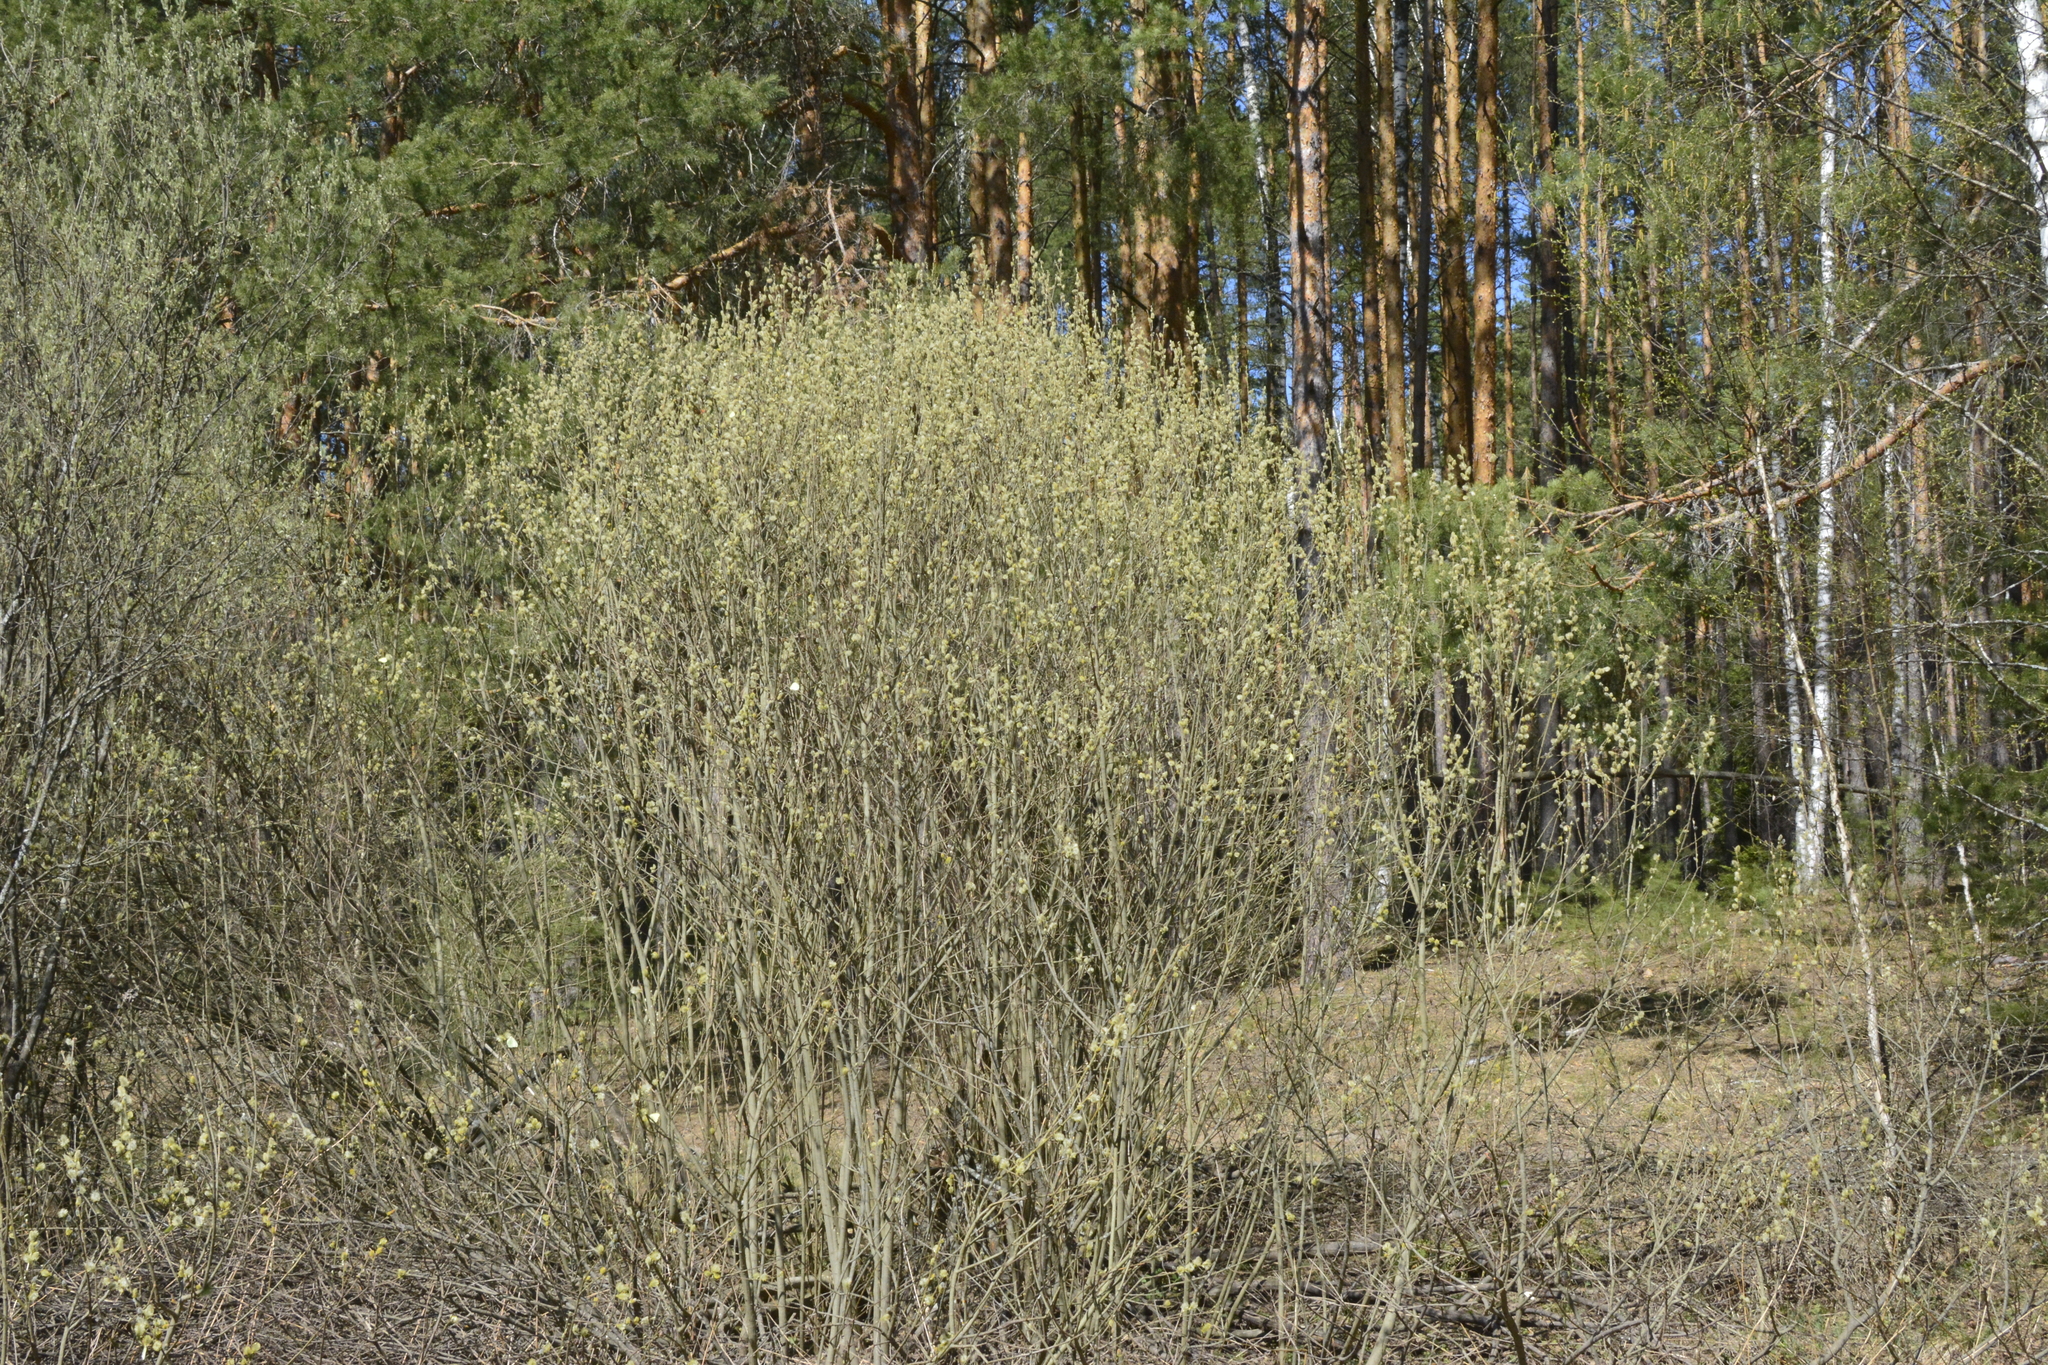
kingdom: Plantae
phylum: Tracheophyta
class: Magnoliopsida
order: Malpighiales
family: Salicaceae
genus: Salix
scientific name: Salix cinerea
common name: Common sallow
